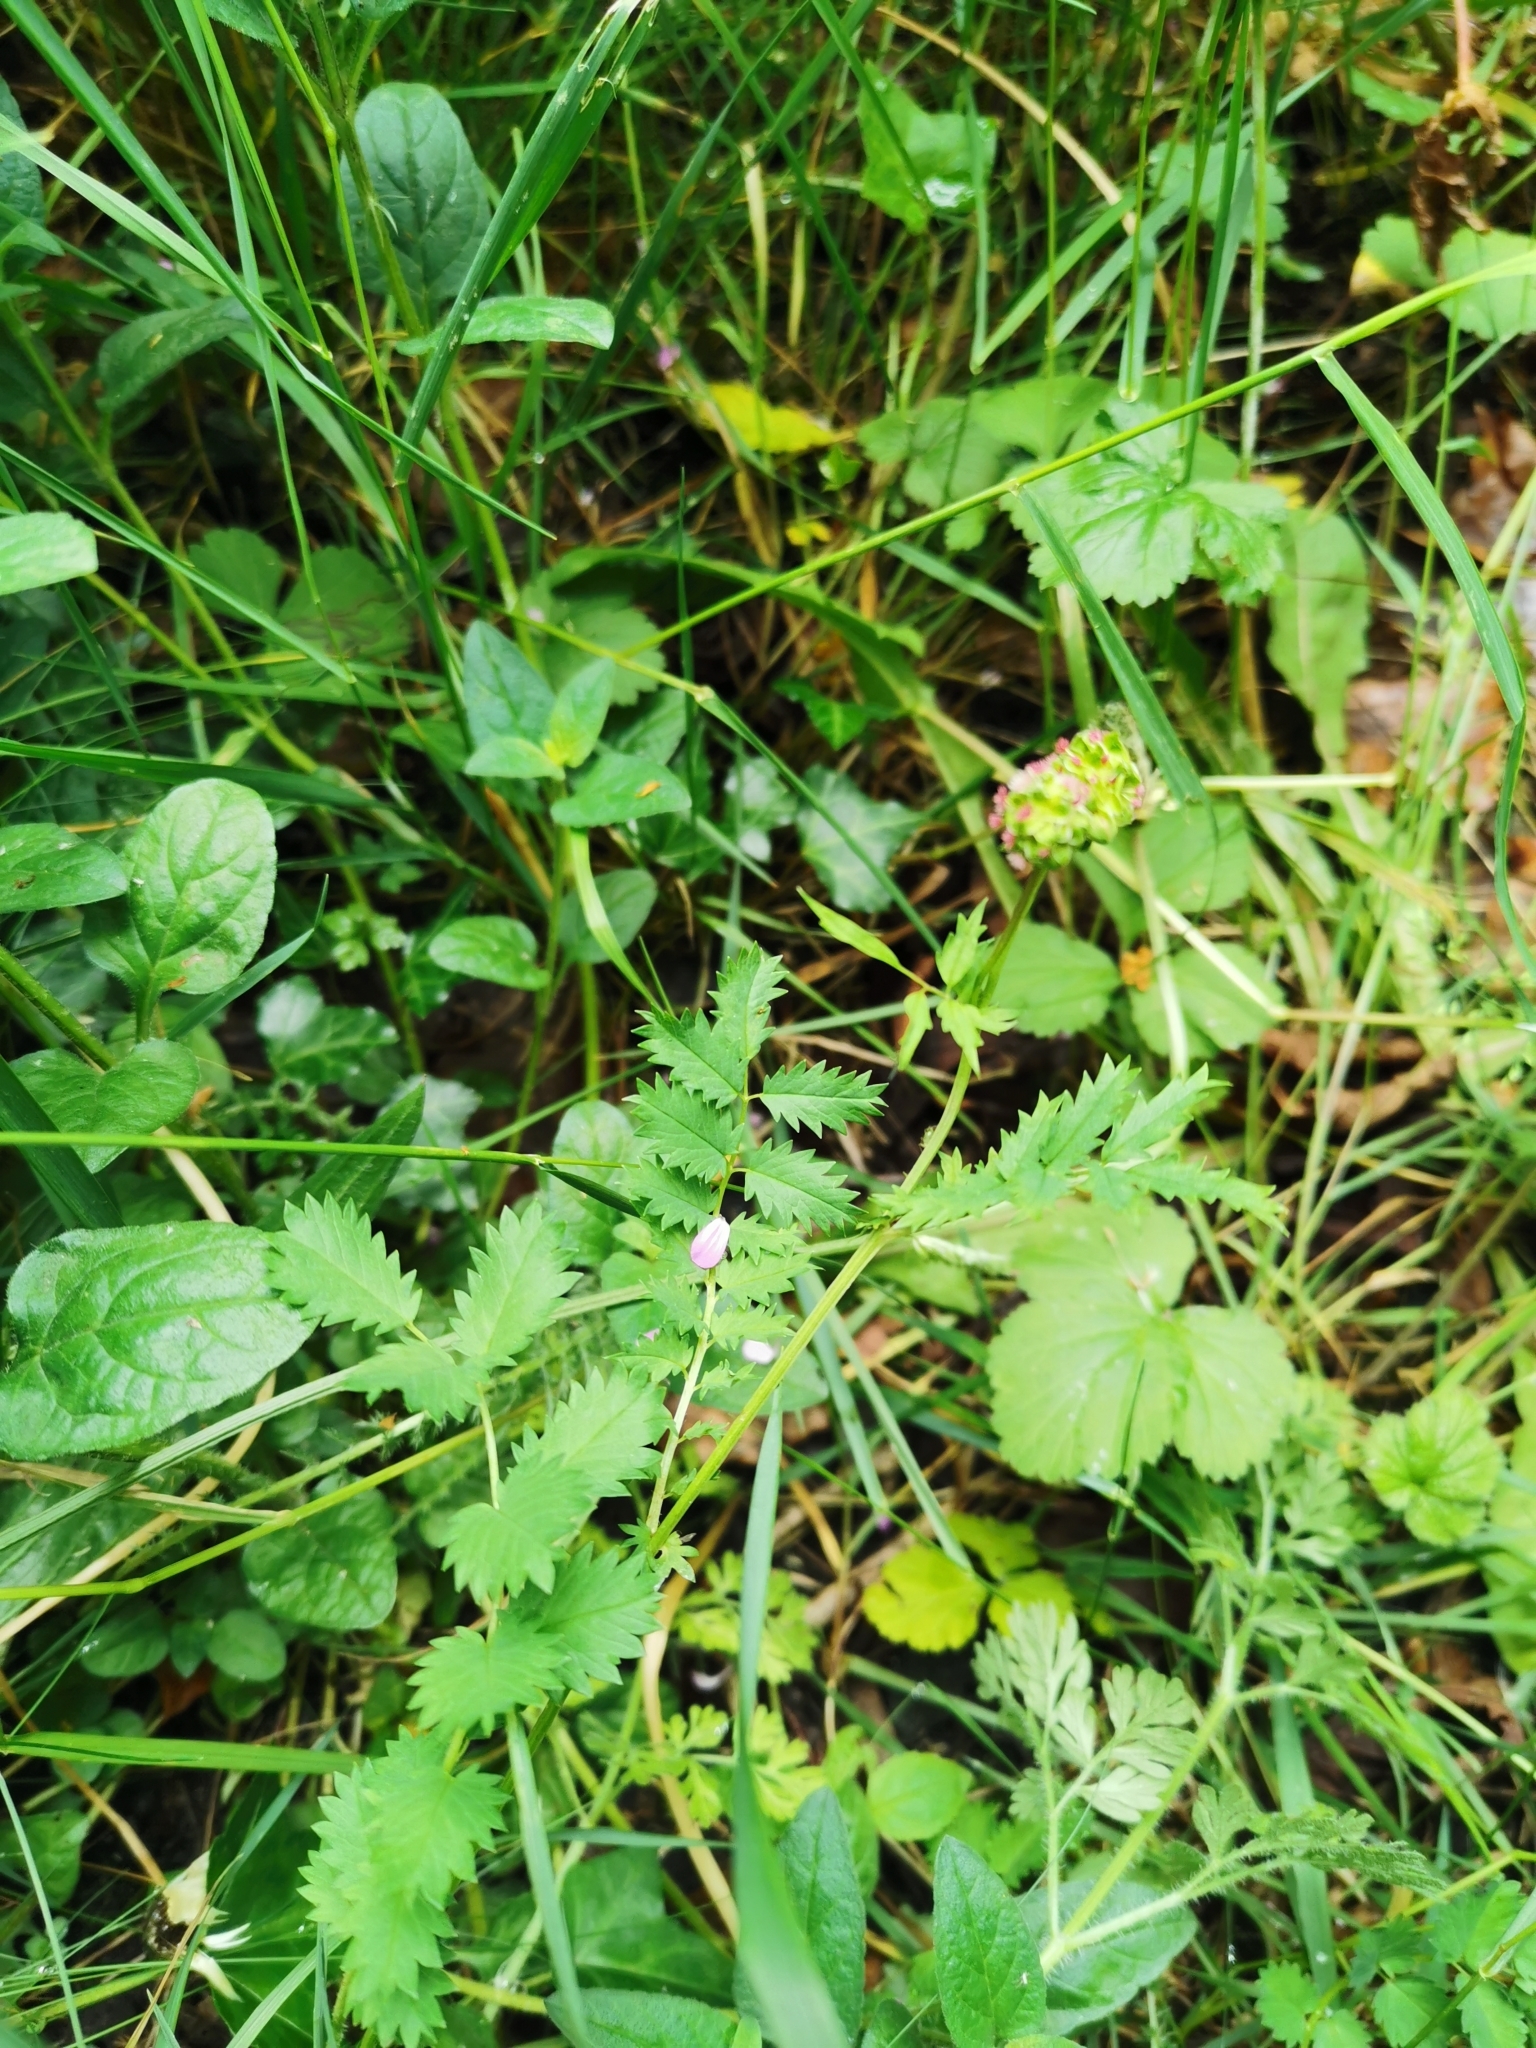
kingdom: Plantae
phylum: Tracheophyta
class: Magnoliopsida
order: Rosales
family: Rosaceae
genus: Poterium
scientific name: Poterium sanguisorba
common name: Salad burnet
